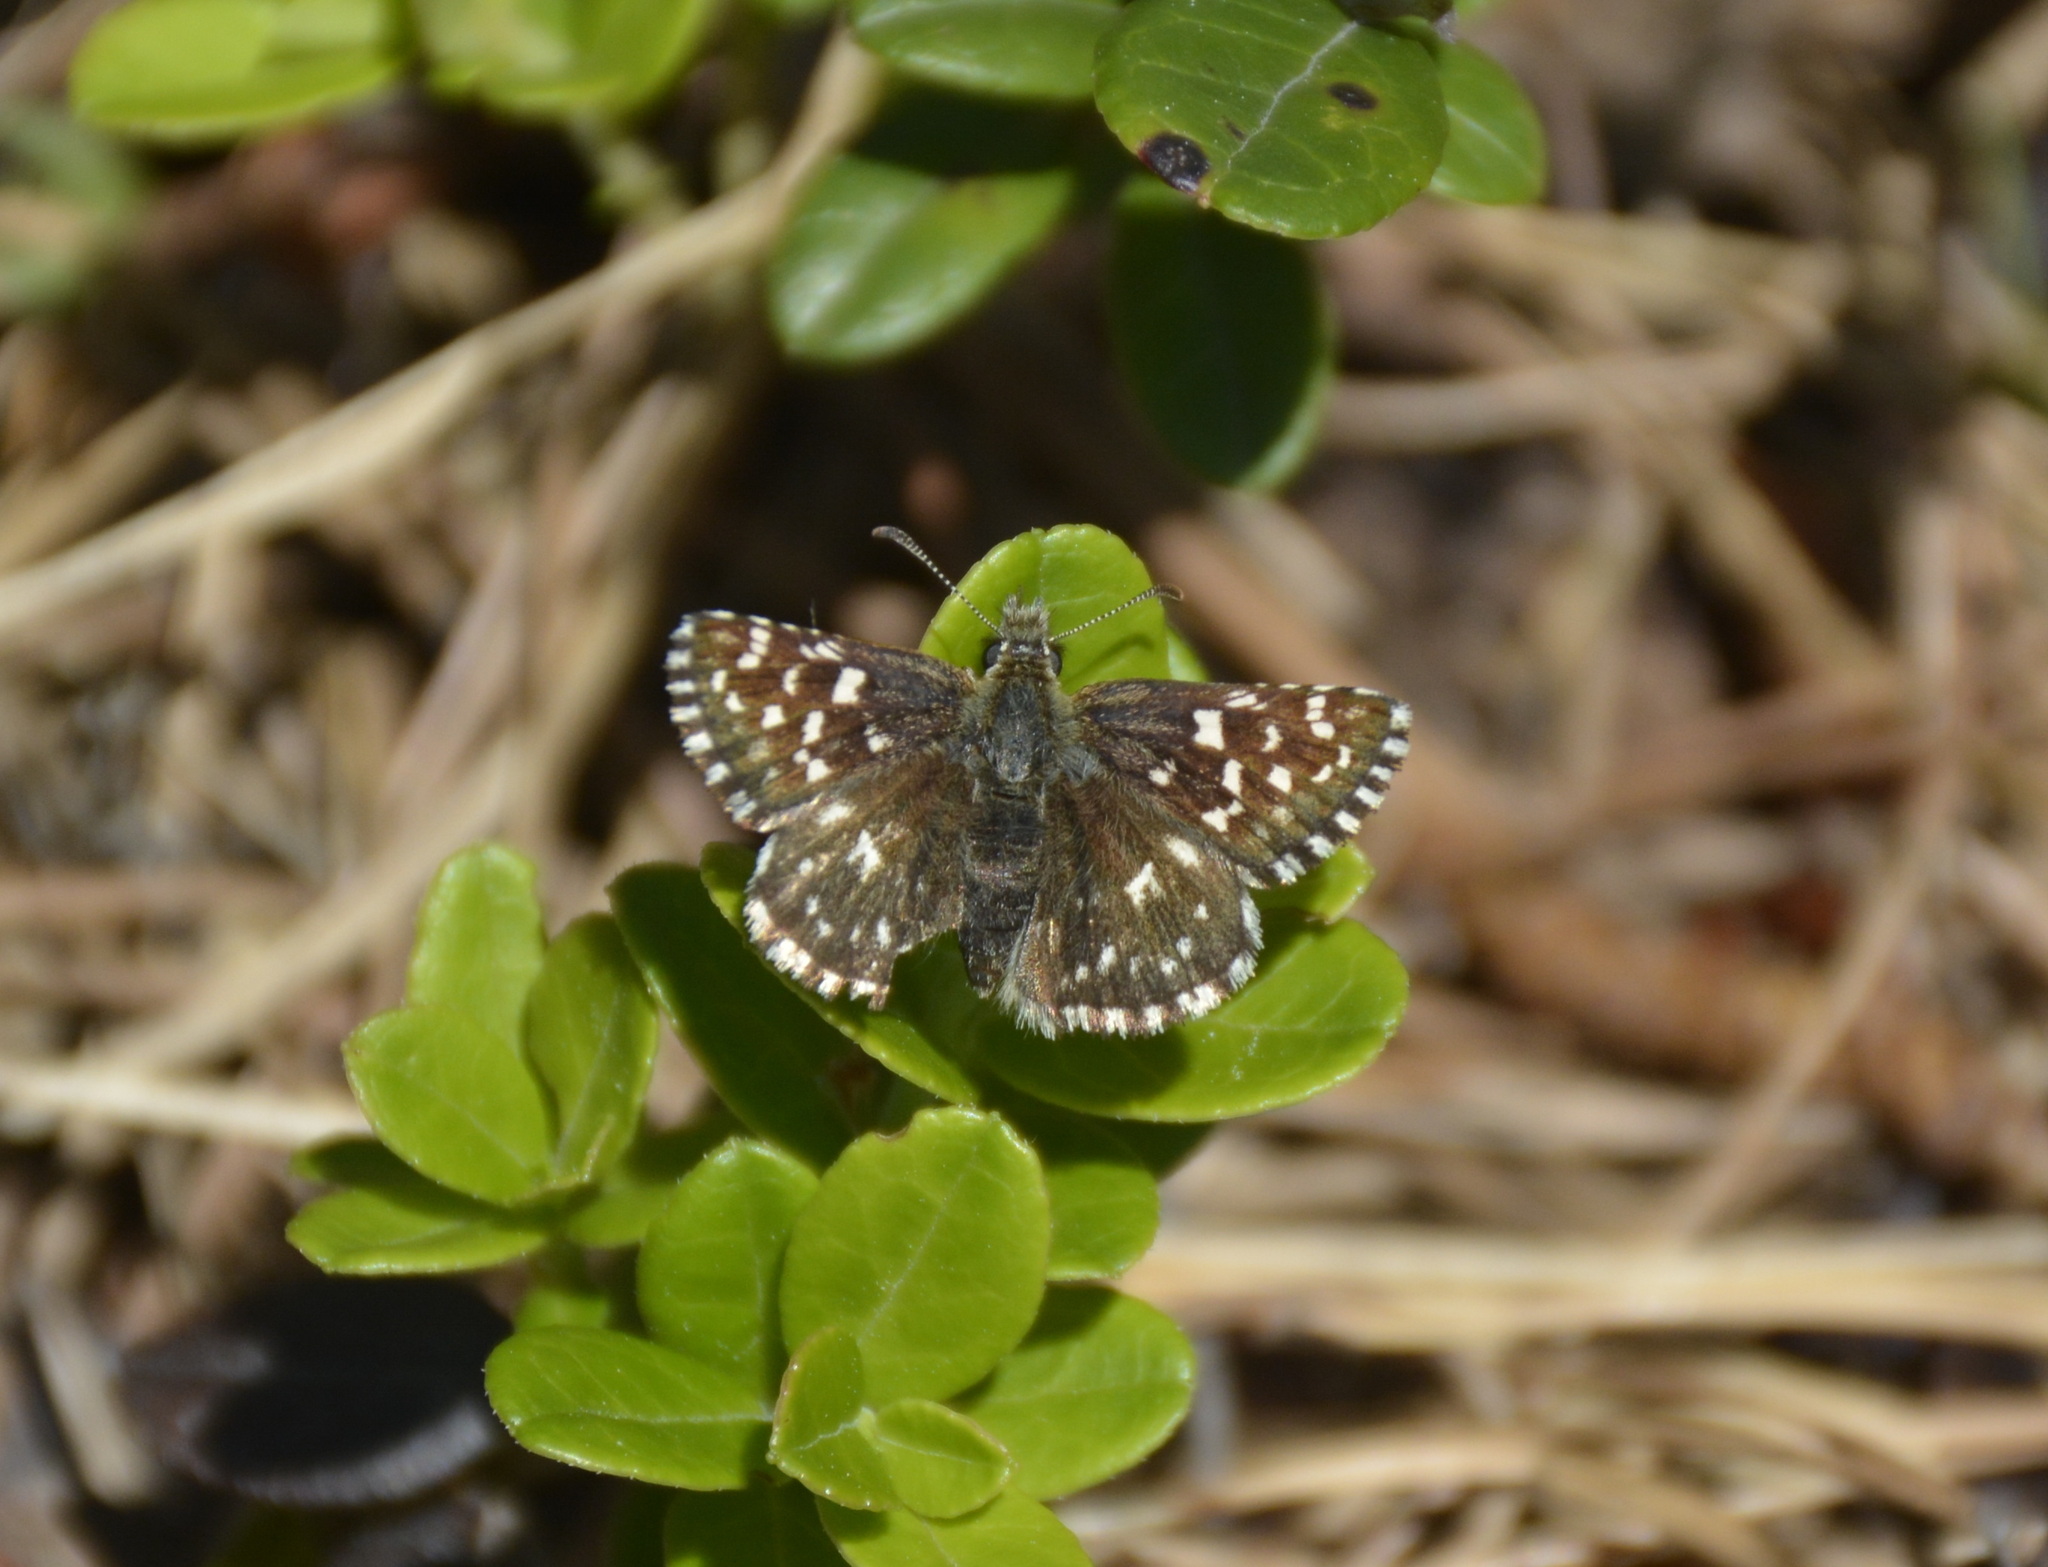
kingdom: Animalia
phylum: Arthropoda
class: Insecta
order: Lepidoptera
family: Hesperiidae
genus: Pyrgus
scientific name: Pyrgus malvae
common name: Grizzled skipper
